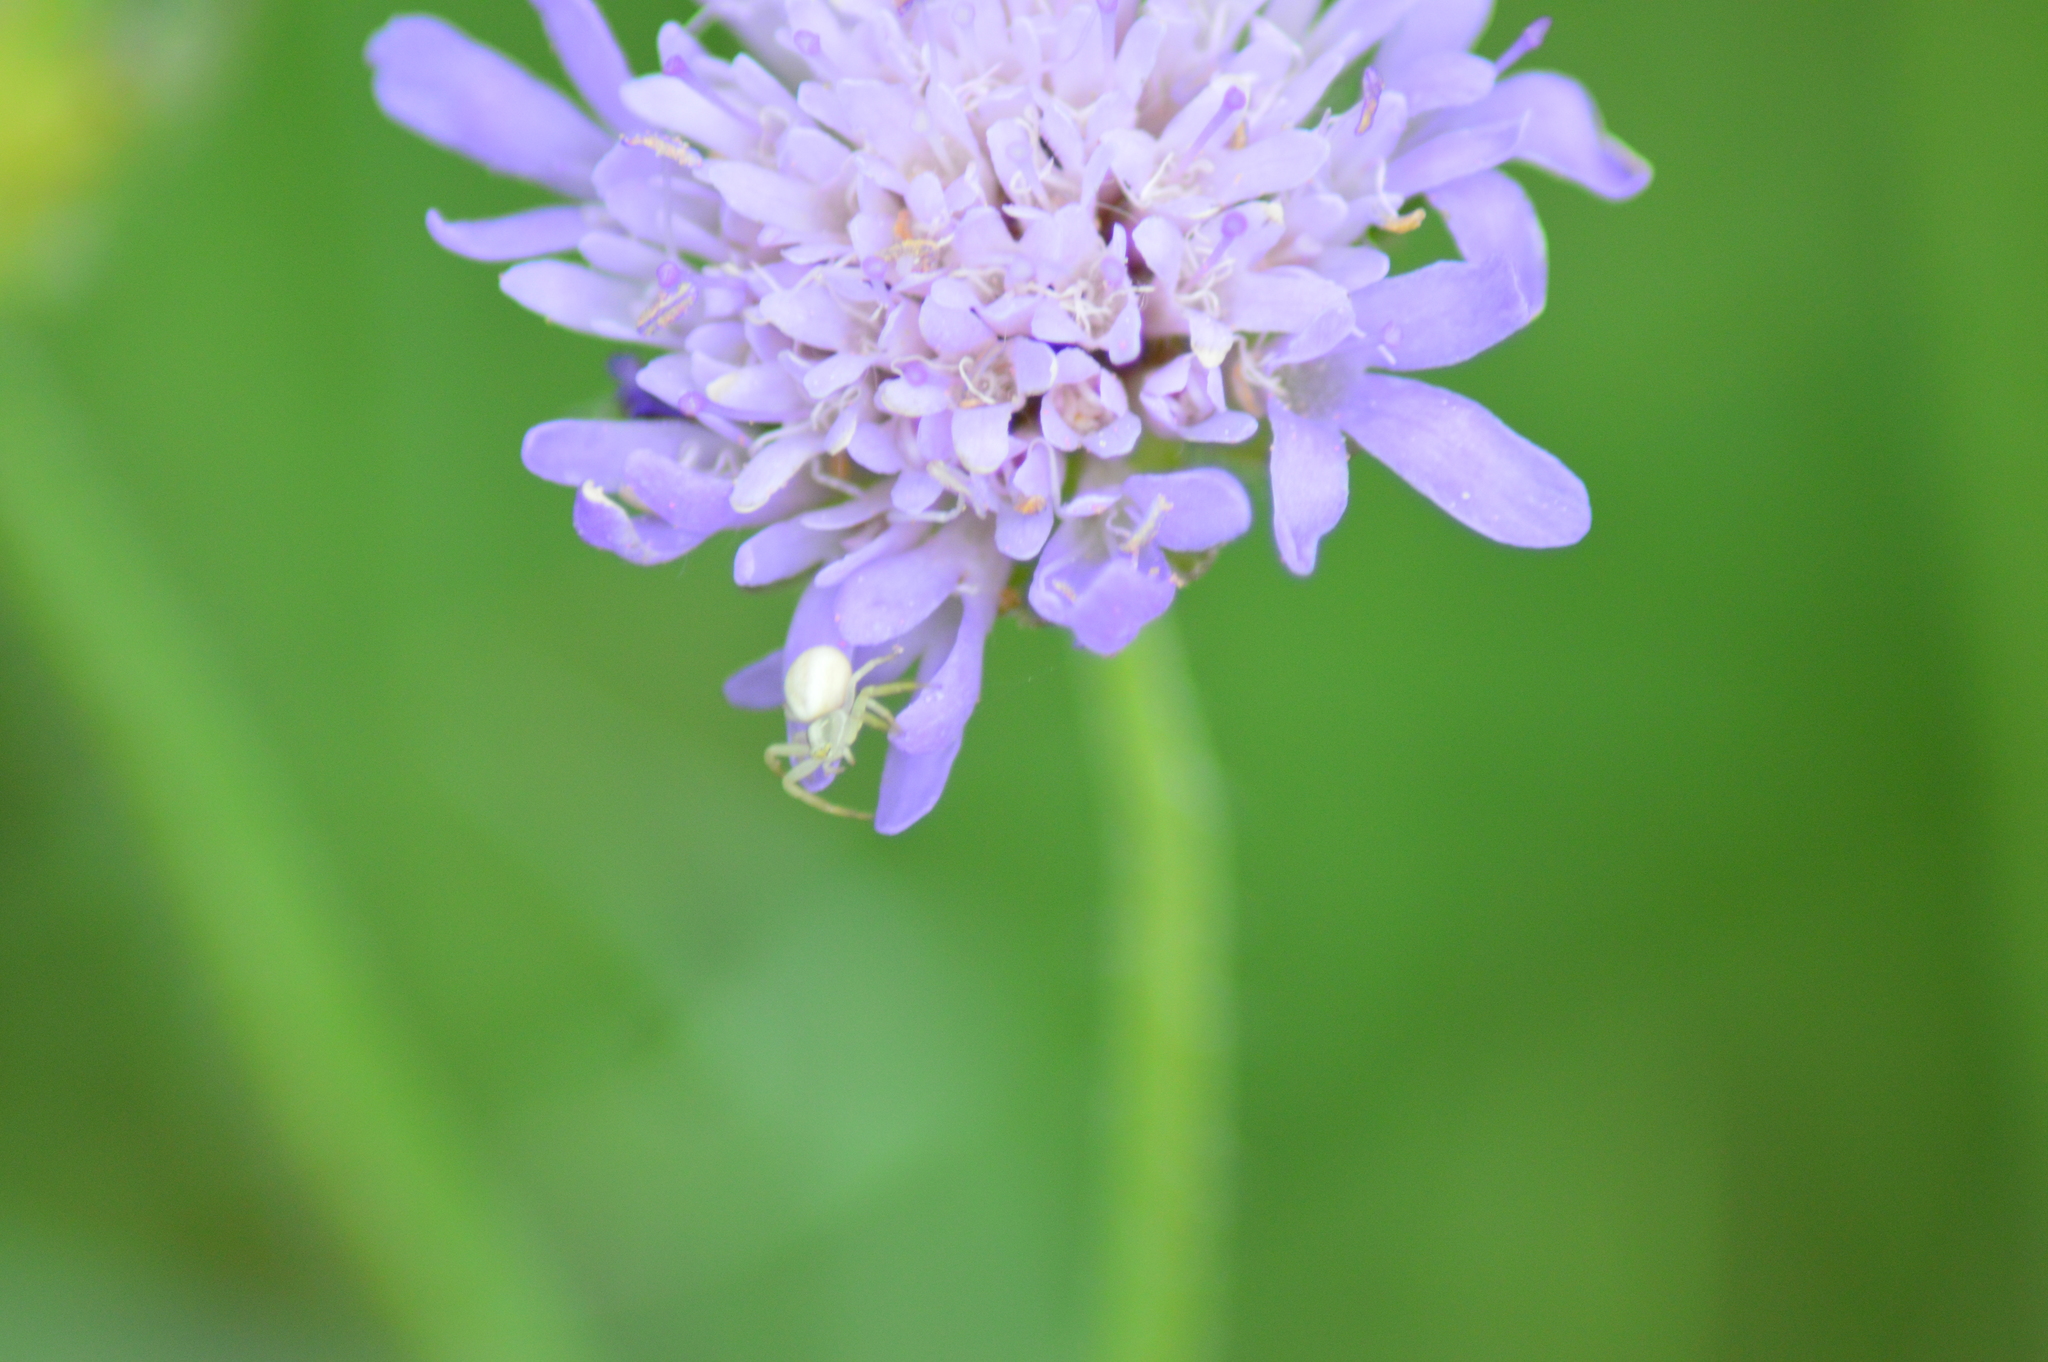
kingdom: Animalia
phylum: Arthropoda
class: Arachnida
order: Araneae
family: Thomisidae
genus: Misumena
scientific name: Misumena vatia
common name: Goldenrod crab spider
